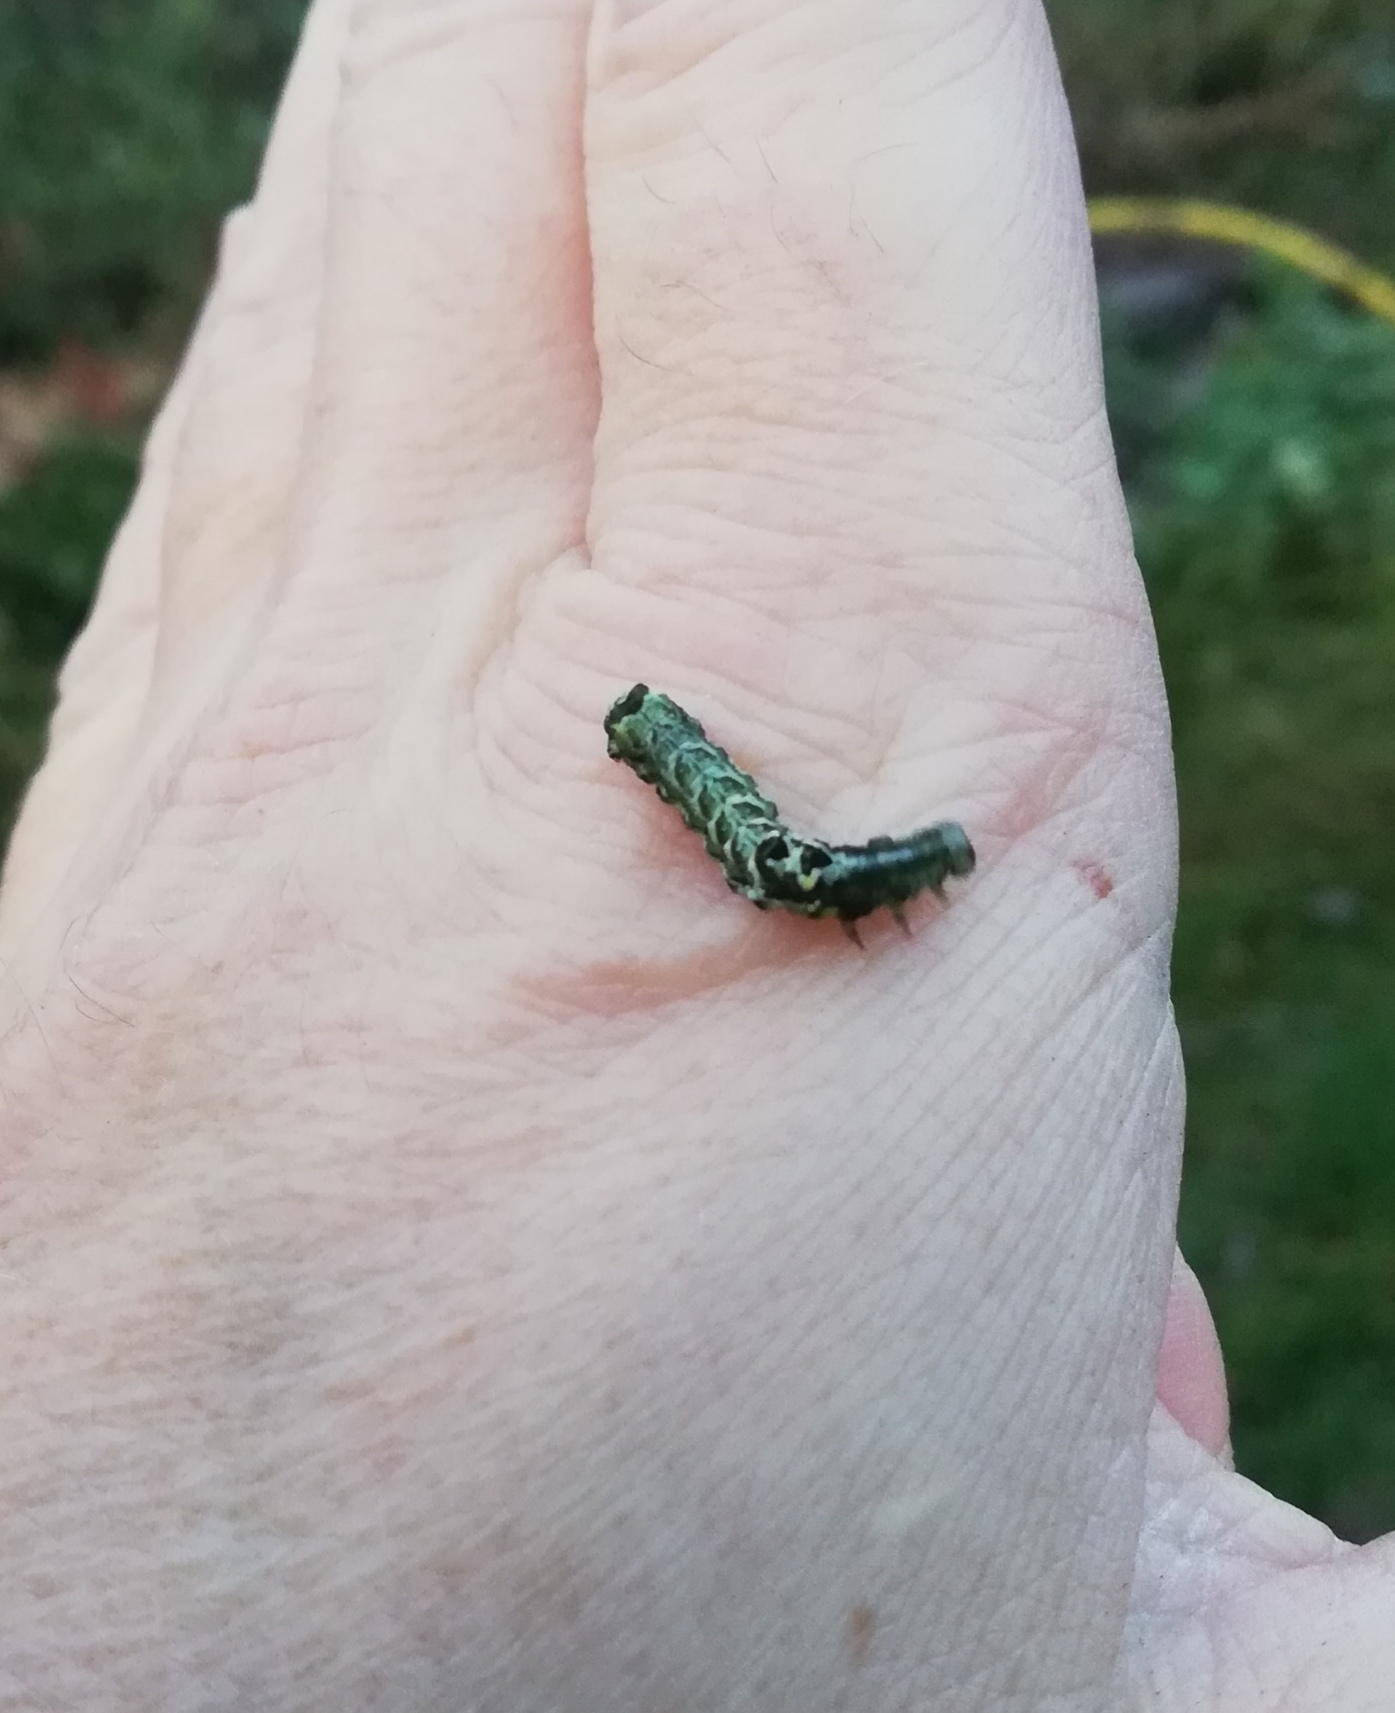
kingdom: Animalia
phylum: Arthropoda
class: Insecta
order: Lepidoptera
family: Noctuidae
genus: Melanchra
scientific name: Melanchra persicariae
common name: Dot moth
